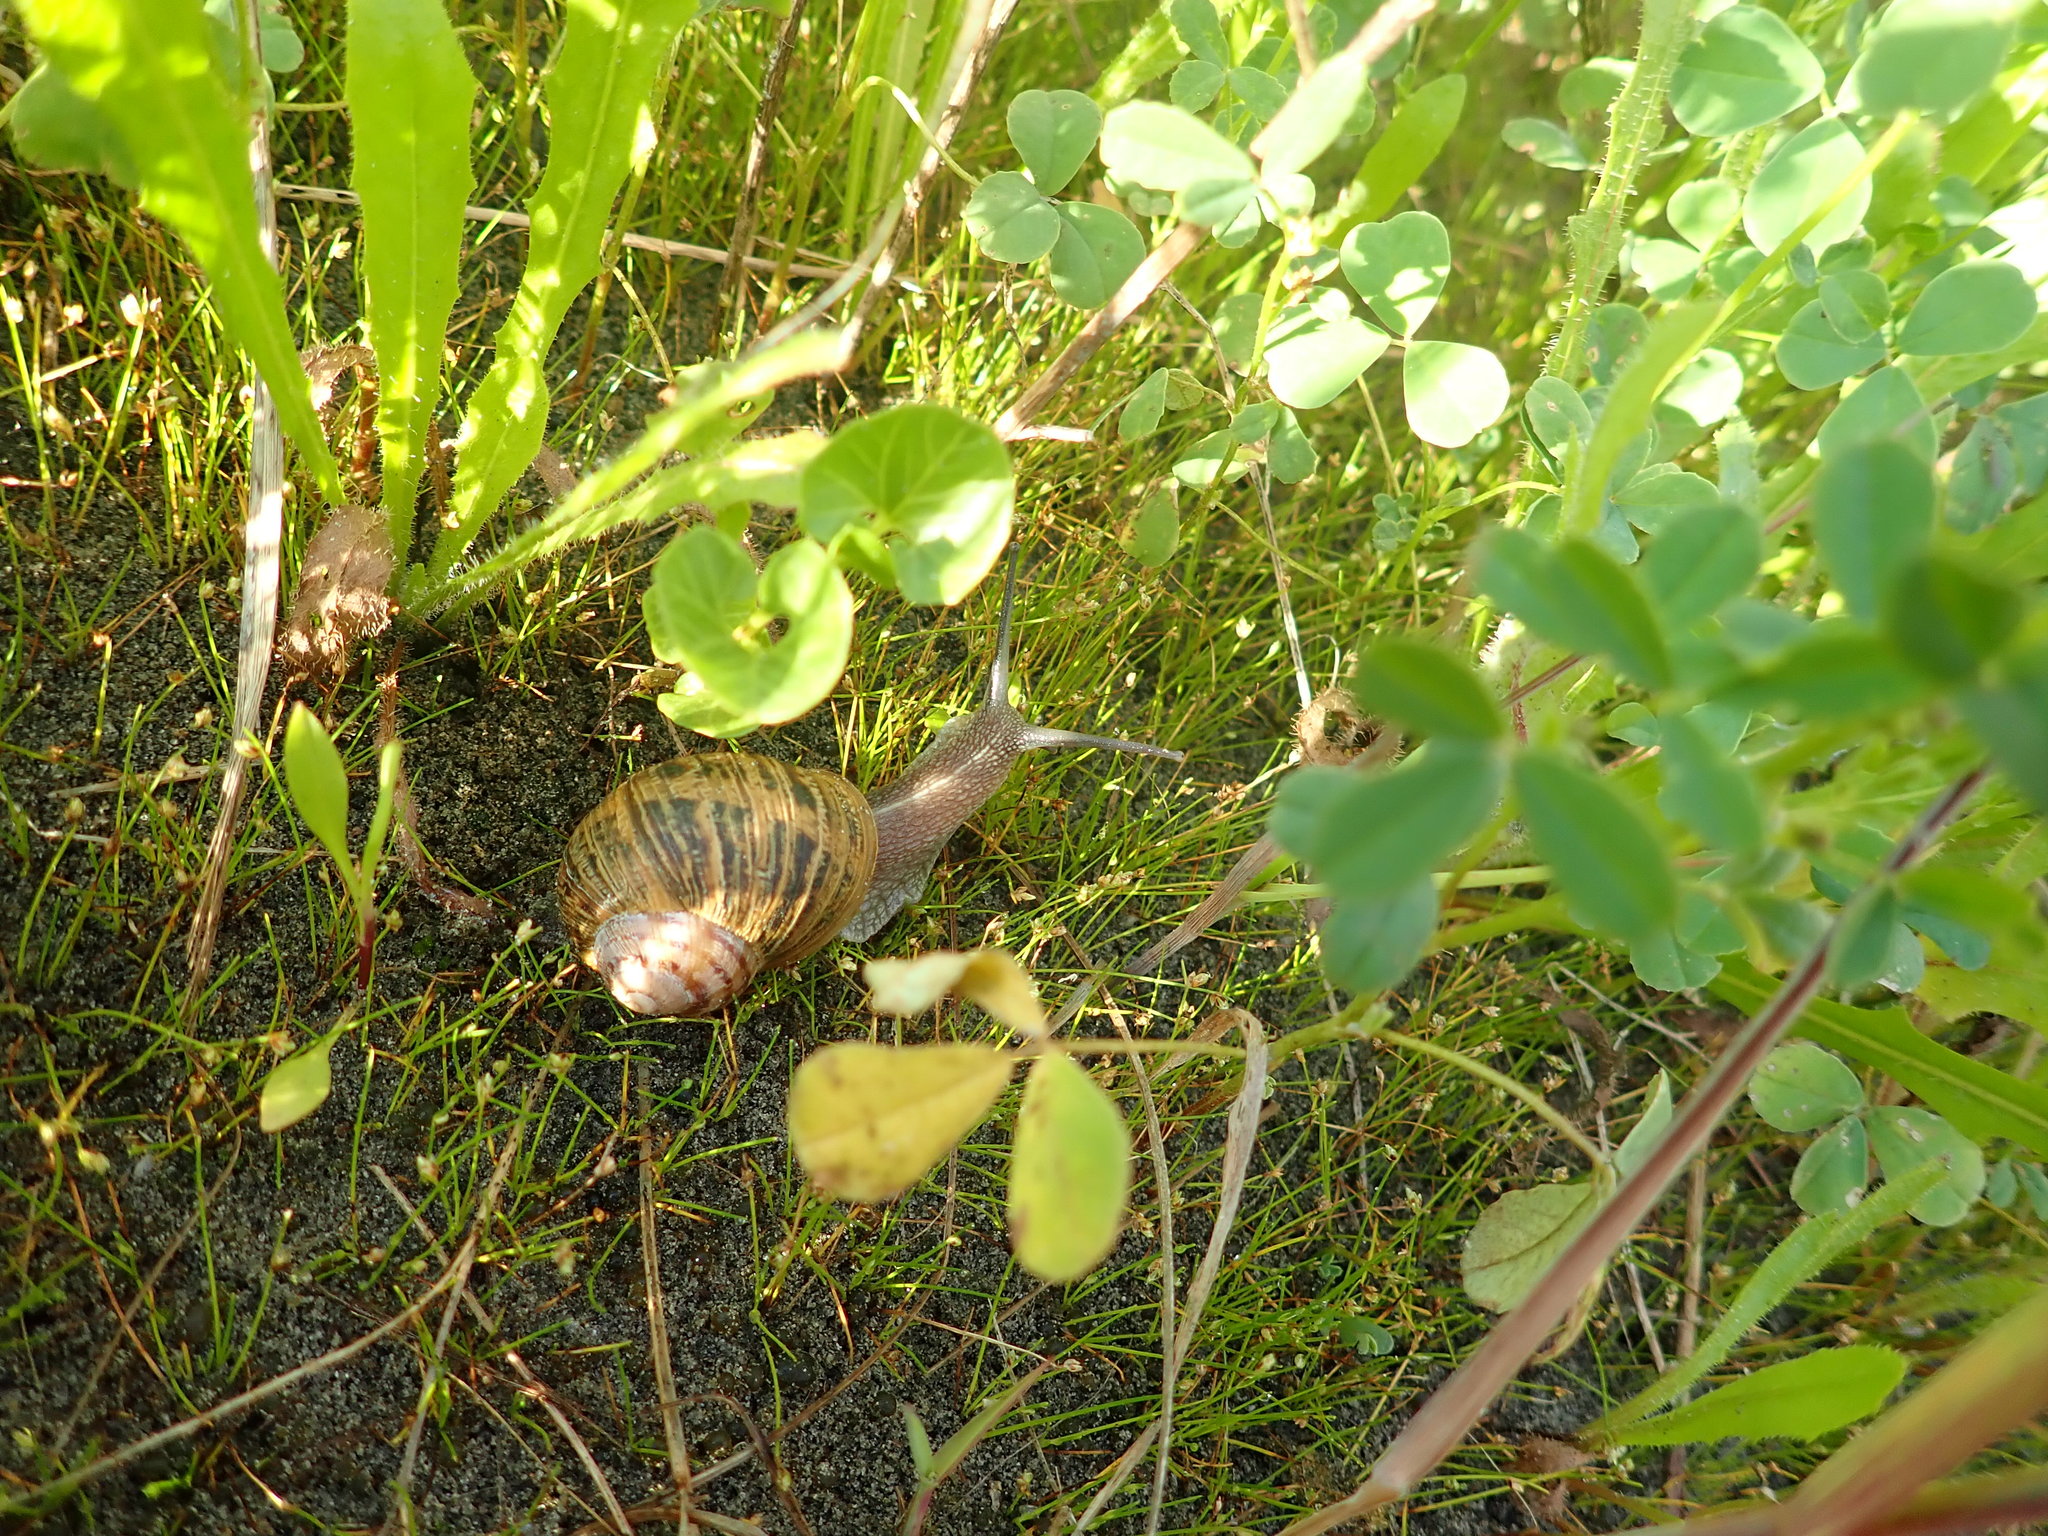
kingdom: Animalia
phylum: Mollusca
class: Gastropoda
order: Stylommatophora
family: Helicidae
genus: Cornu
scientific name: Cornu aspersum
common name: Brown garden snail
